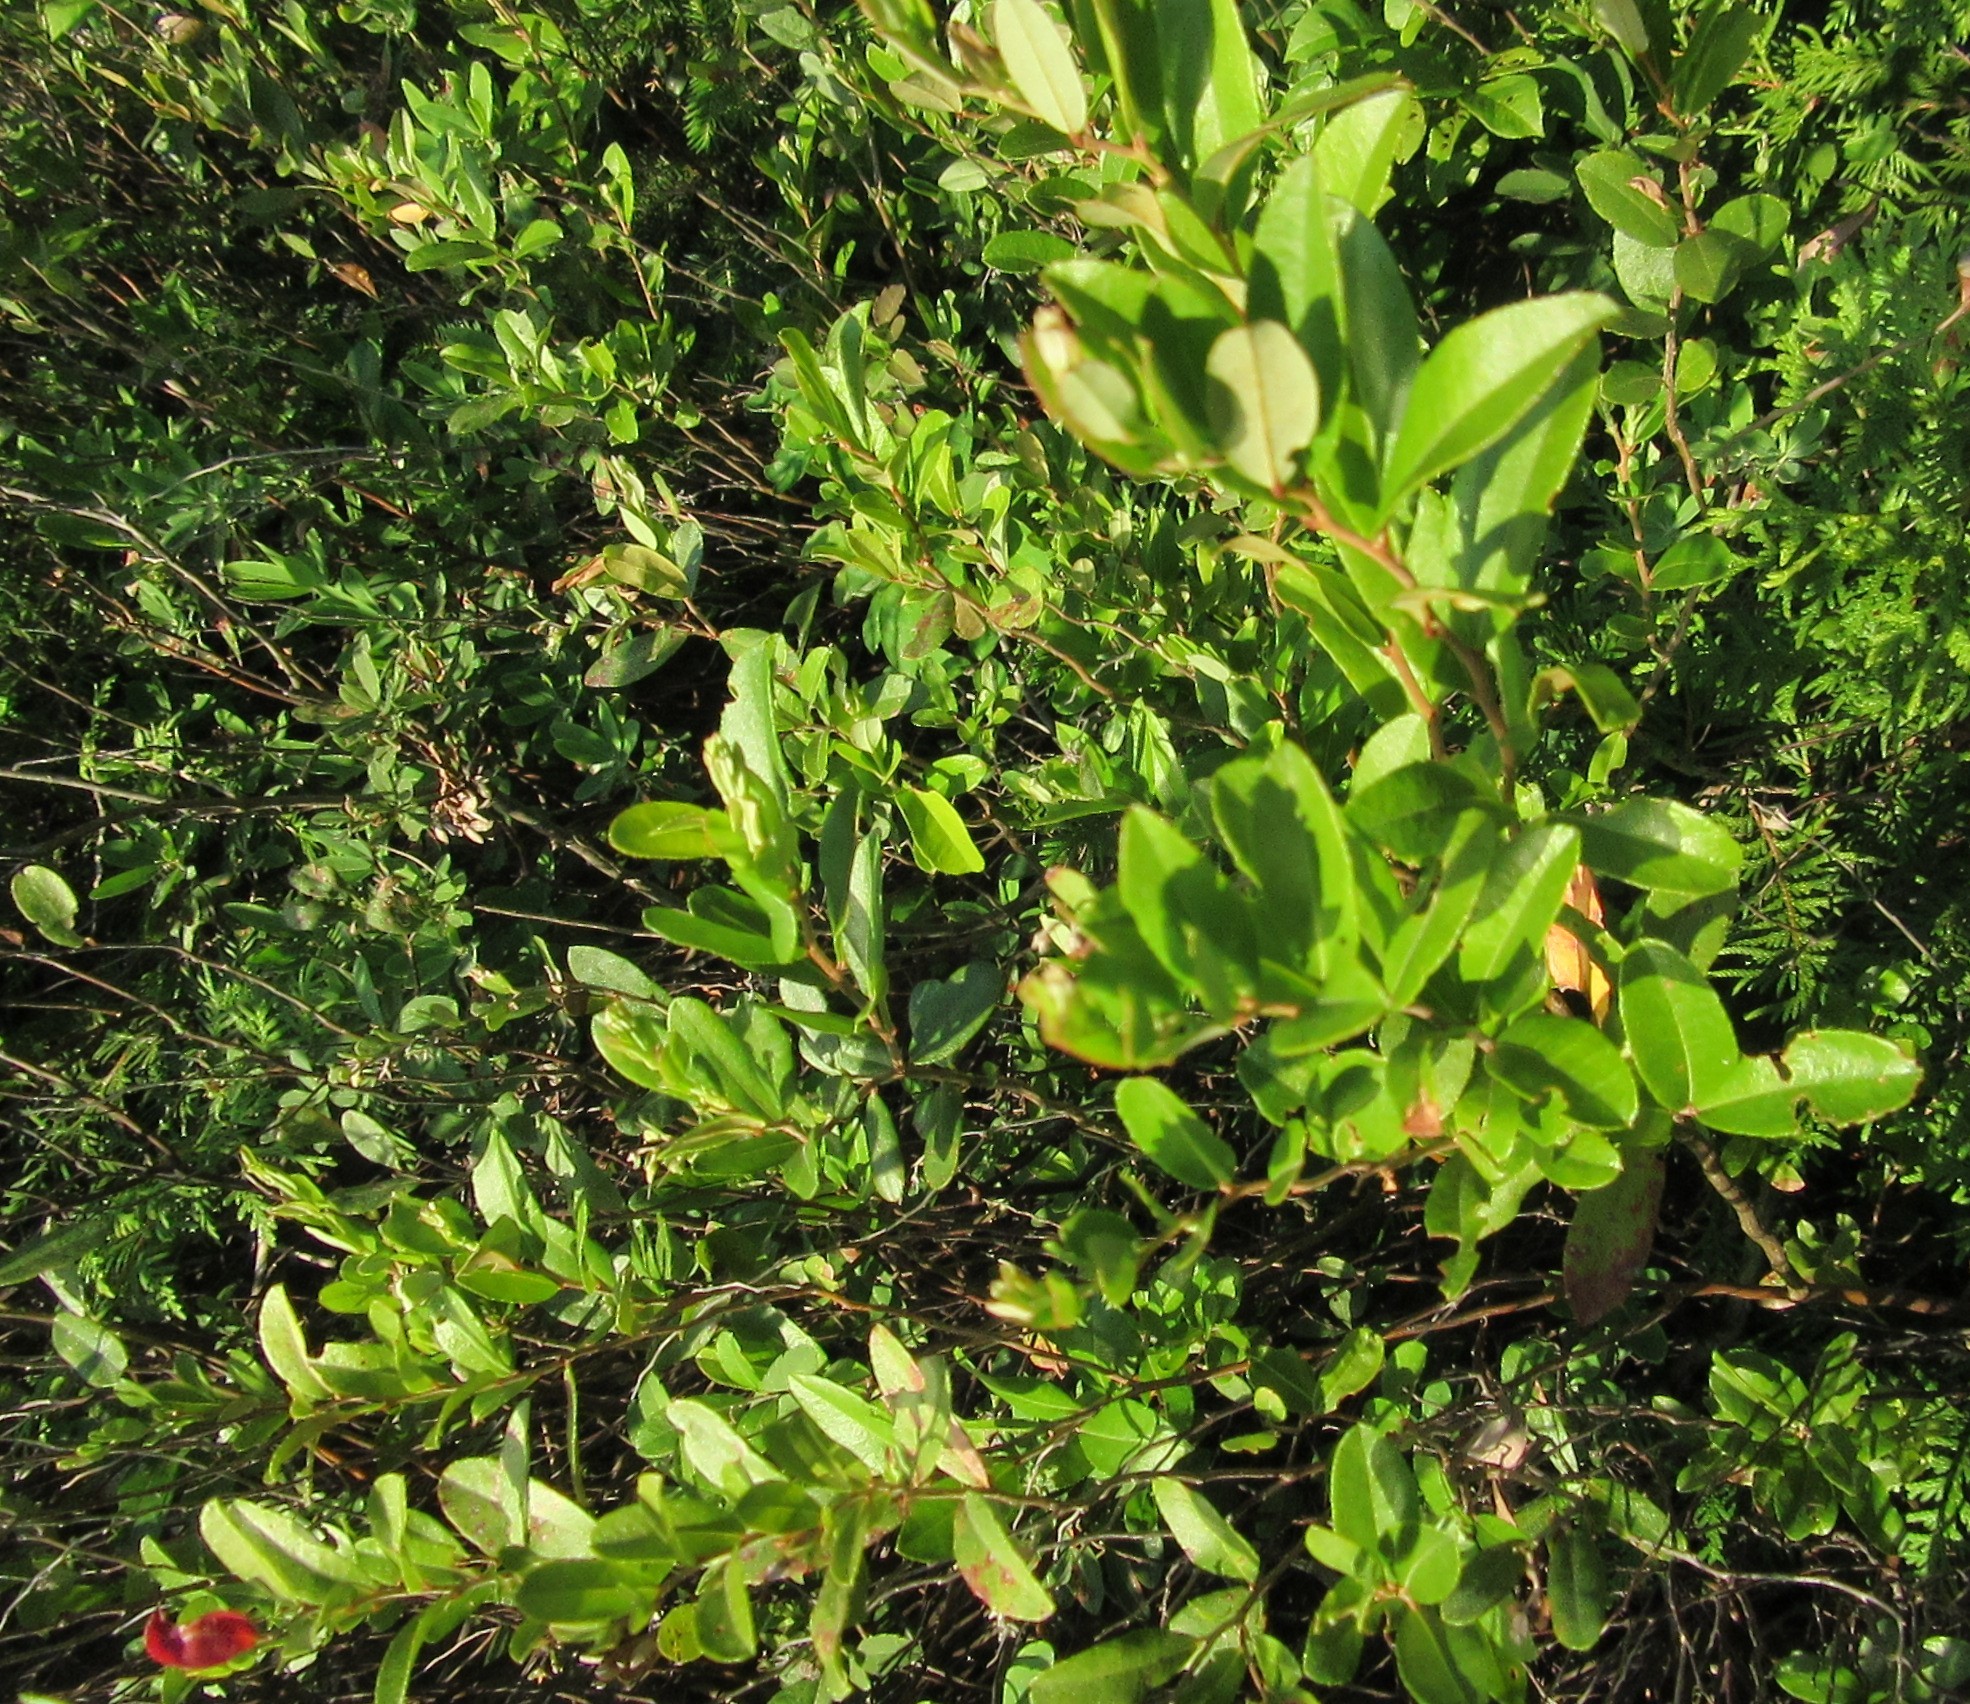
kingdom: Plantae
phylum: Tracheophyta
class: Magnoliopsida
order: Ericales
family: Ericaceae
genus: Chamaedaphne
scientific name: Chamaedaphne calyculata
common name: Leatherleaf
